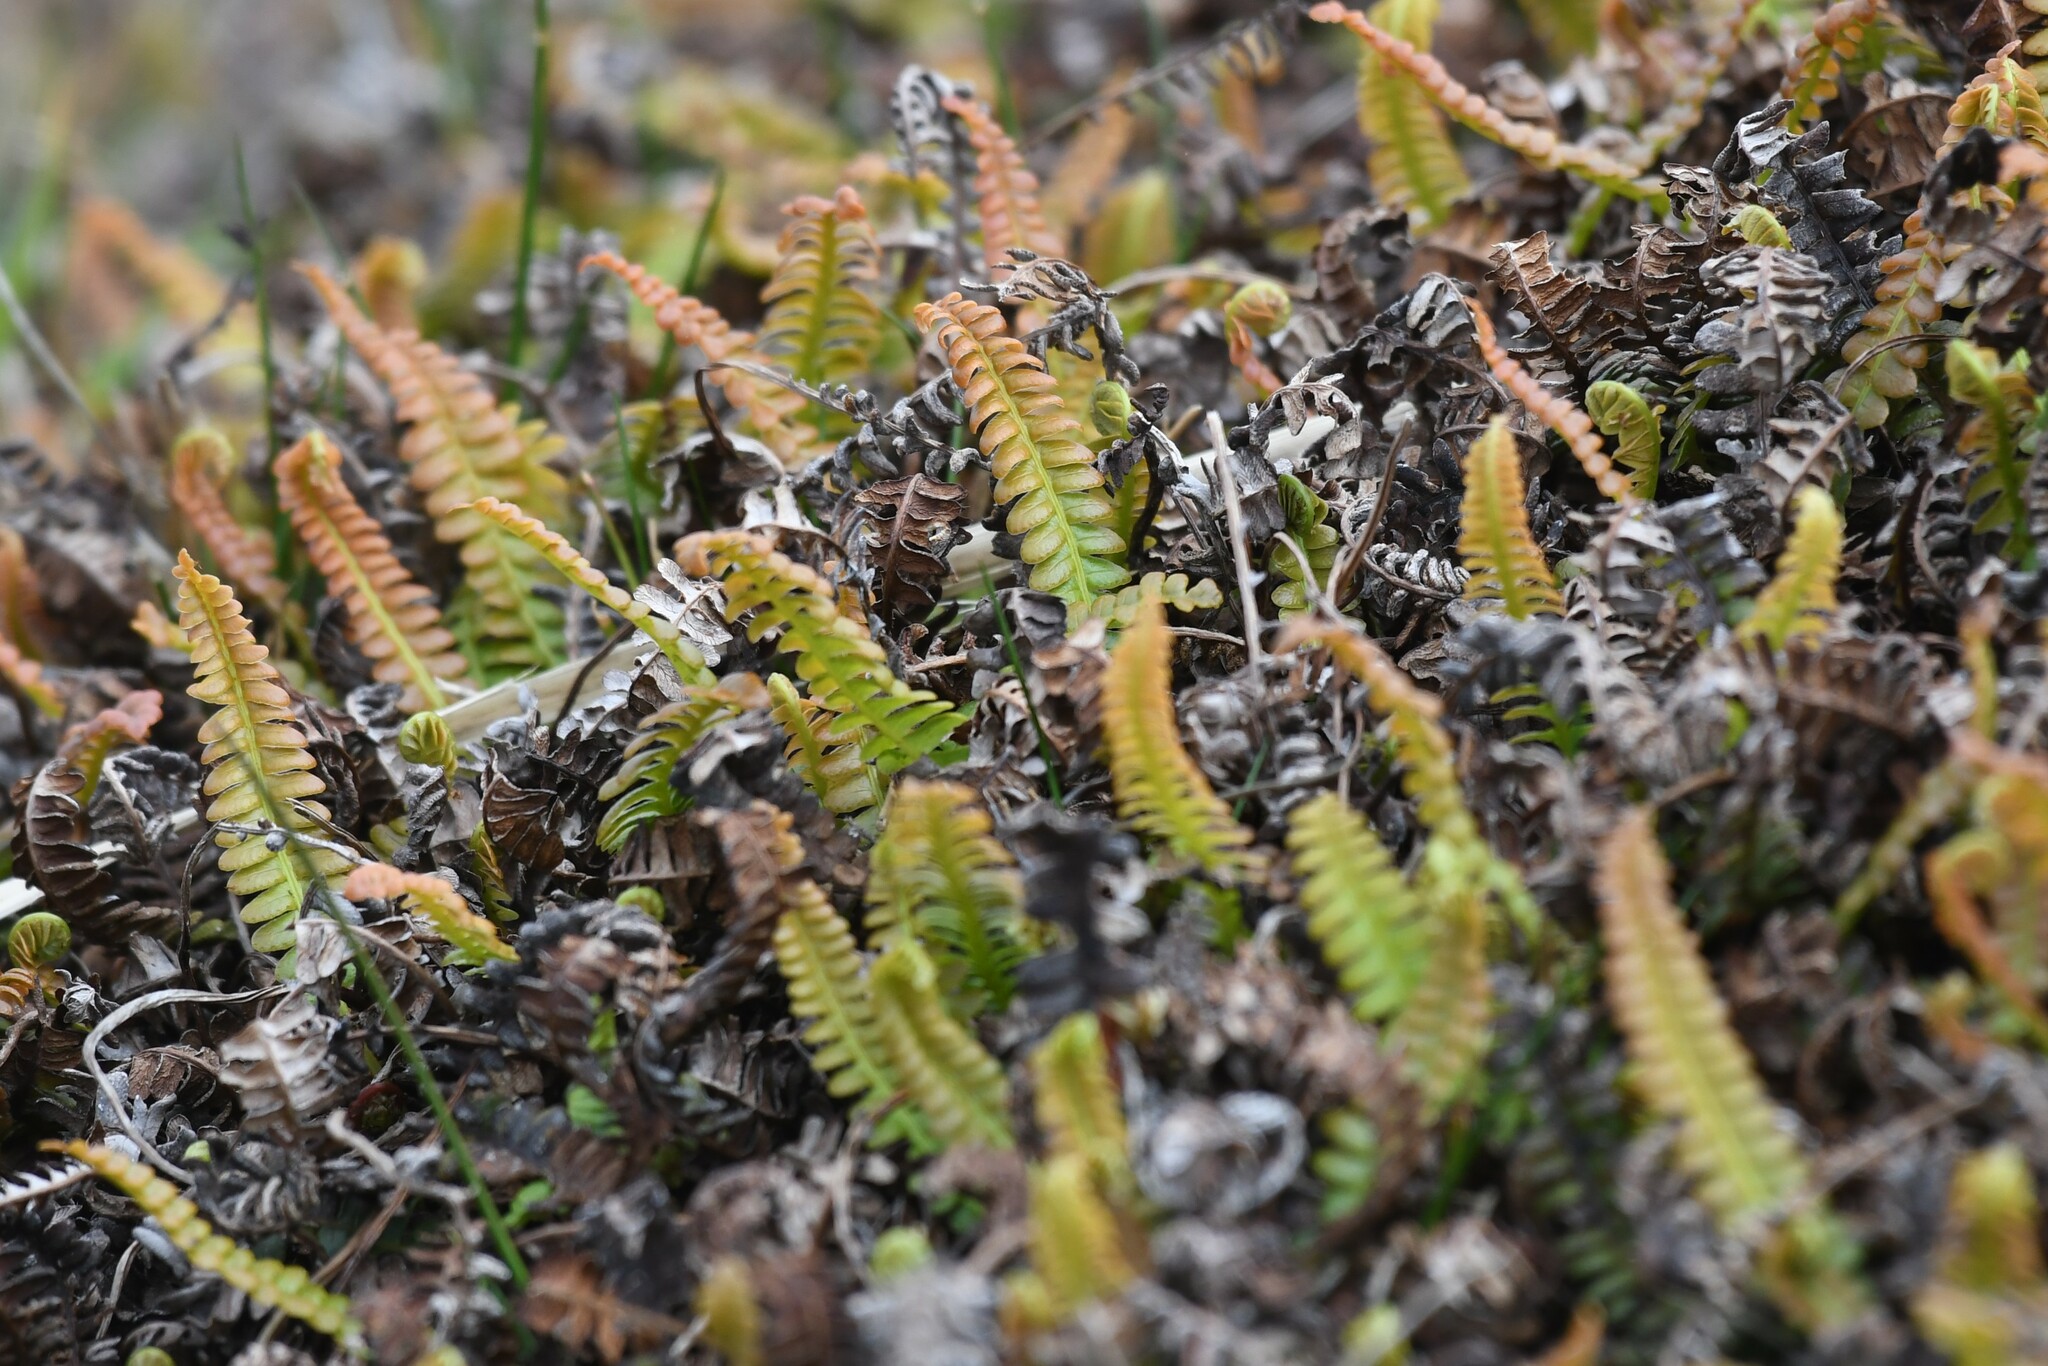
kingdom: Plantae
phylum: Tracheophyta
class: Polypodiopsida
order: Polypodiales
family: Blechnaceae
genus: Austroblechnum
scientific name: Austroblechnum penna-marina
